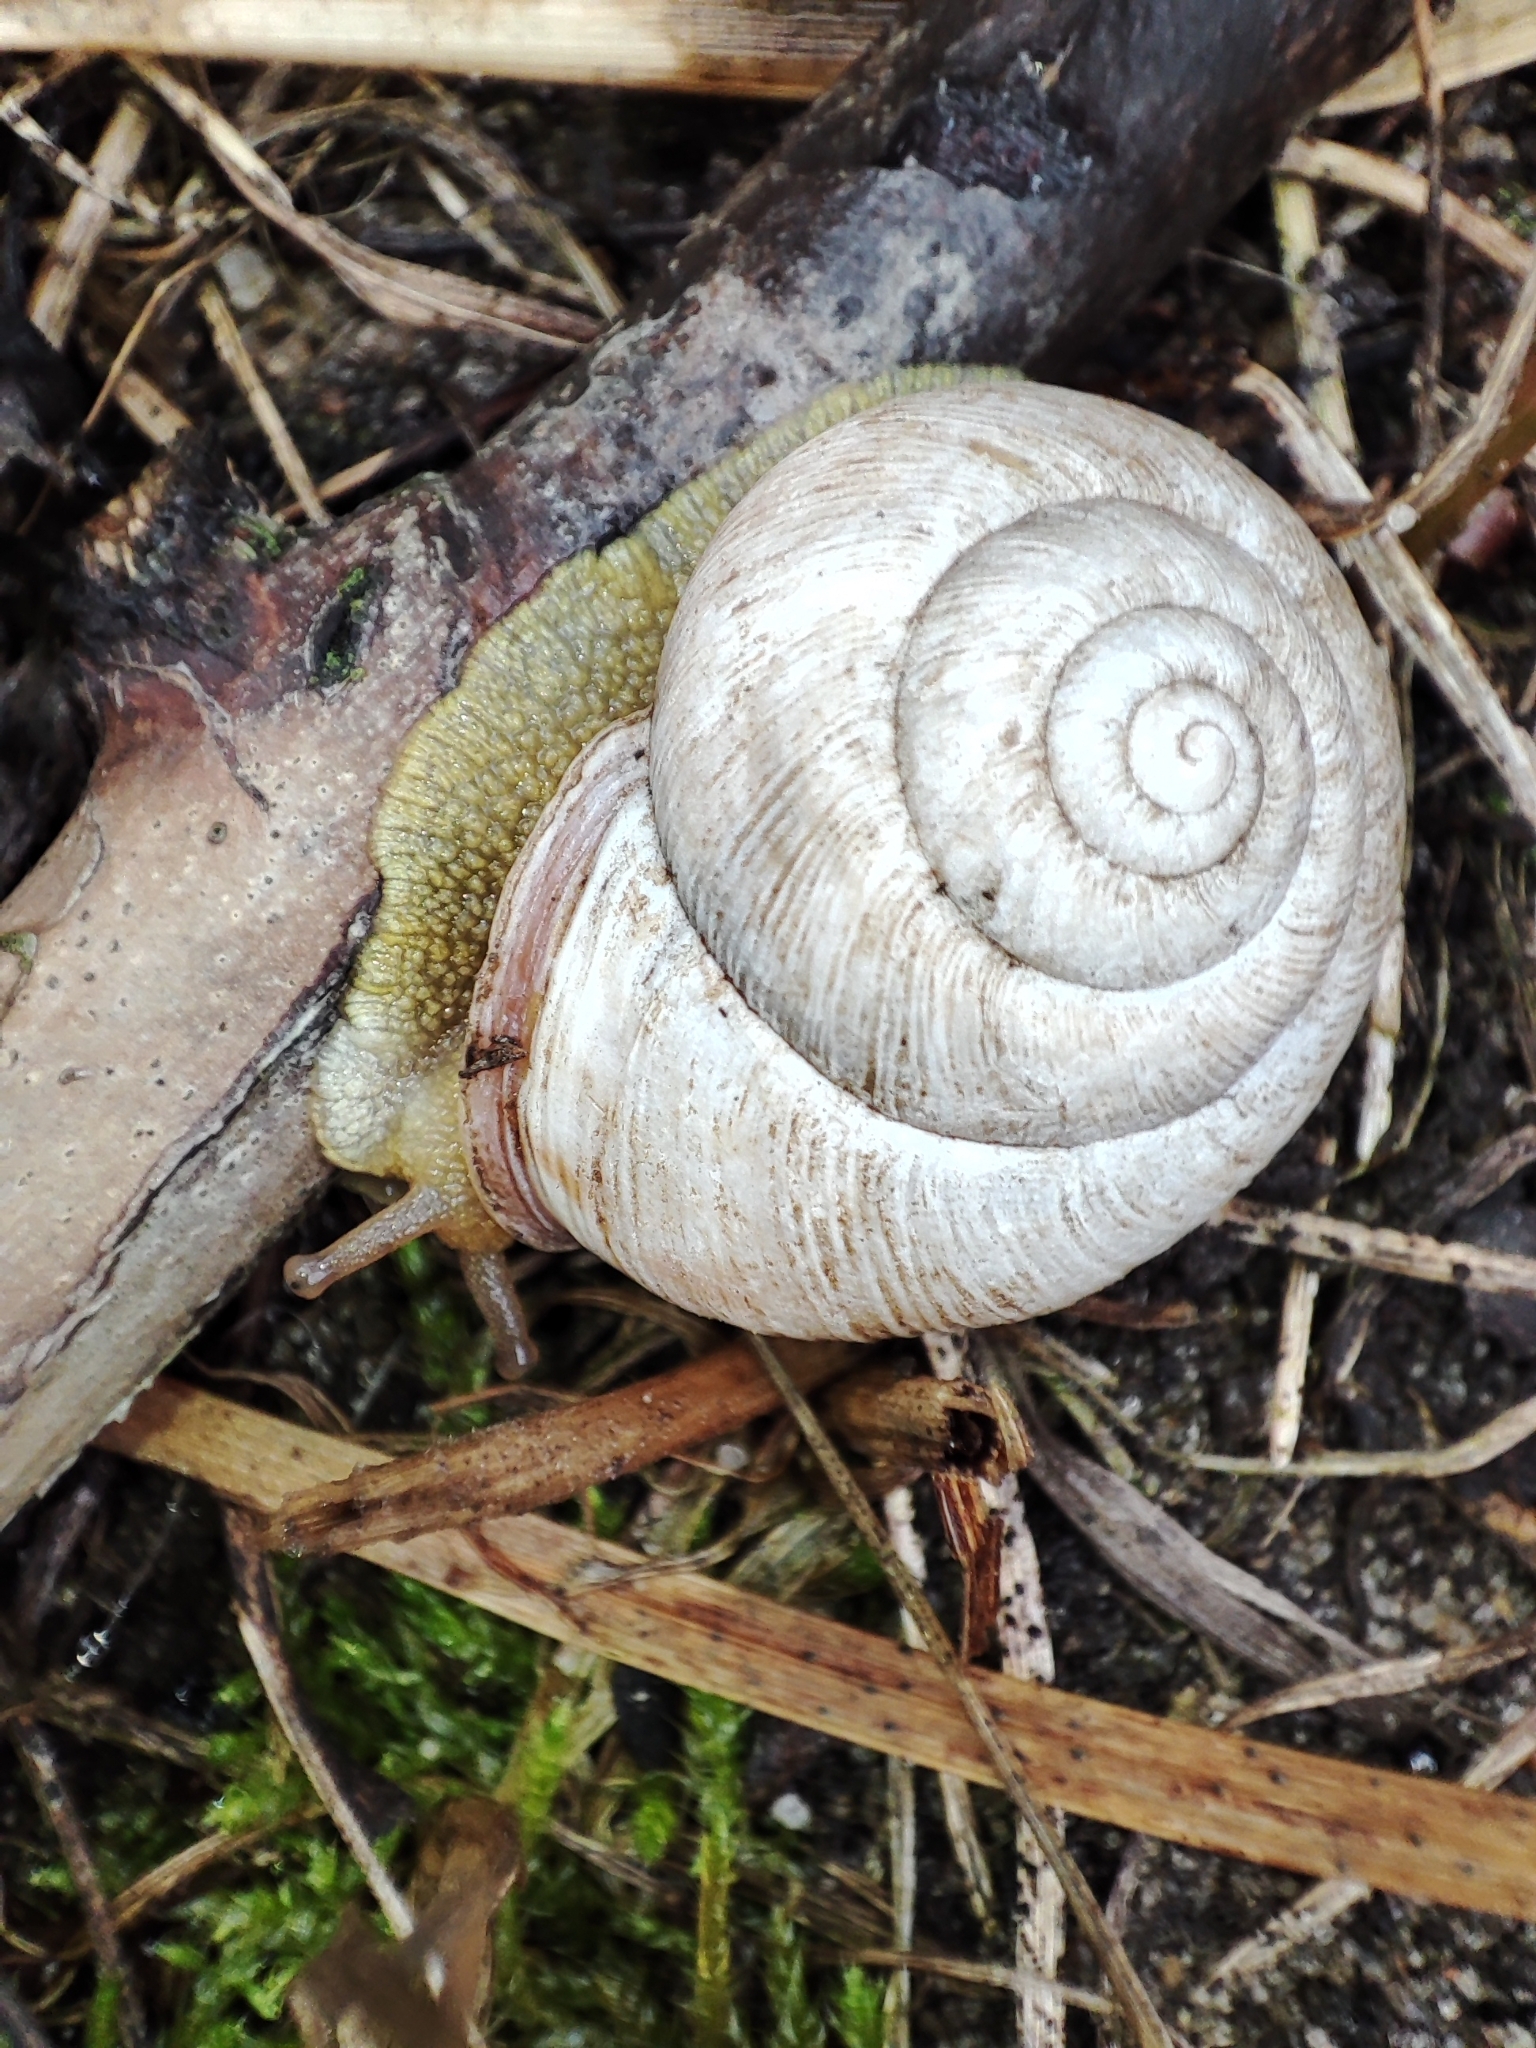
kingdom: Animalia
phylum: Mollusca
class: Gastropoda
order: Stylommatophora
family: Helicidae
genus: Caucasotachea
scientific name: Caucasotachea vindobonensis
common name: European helicid land snail
